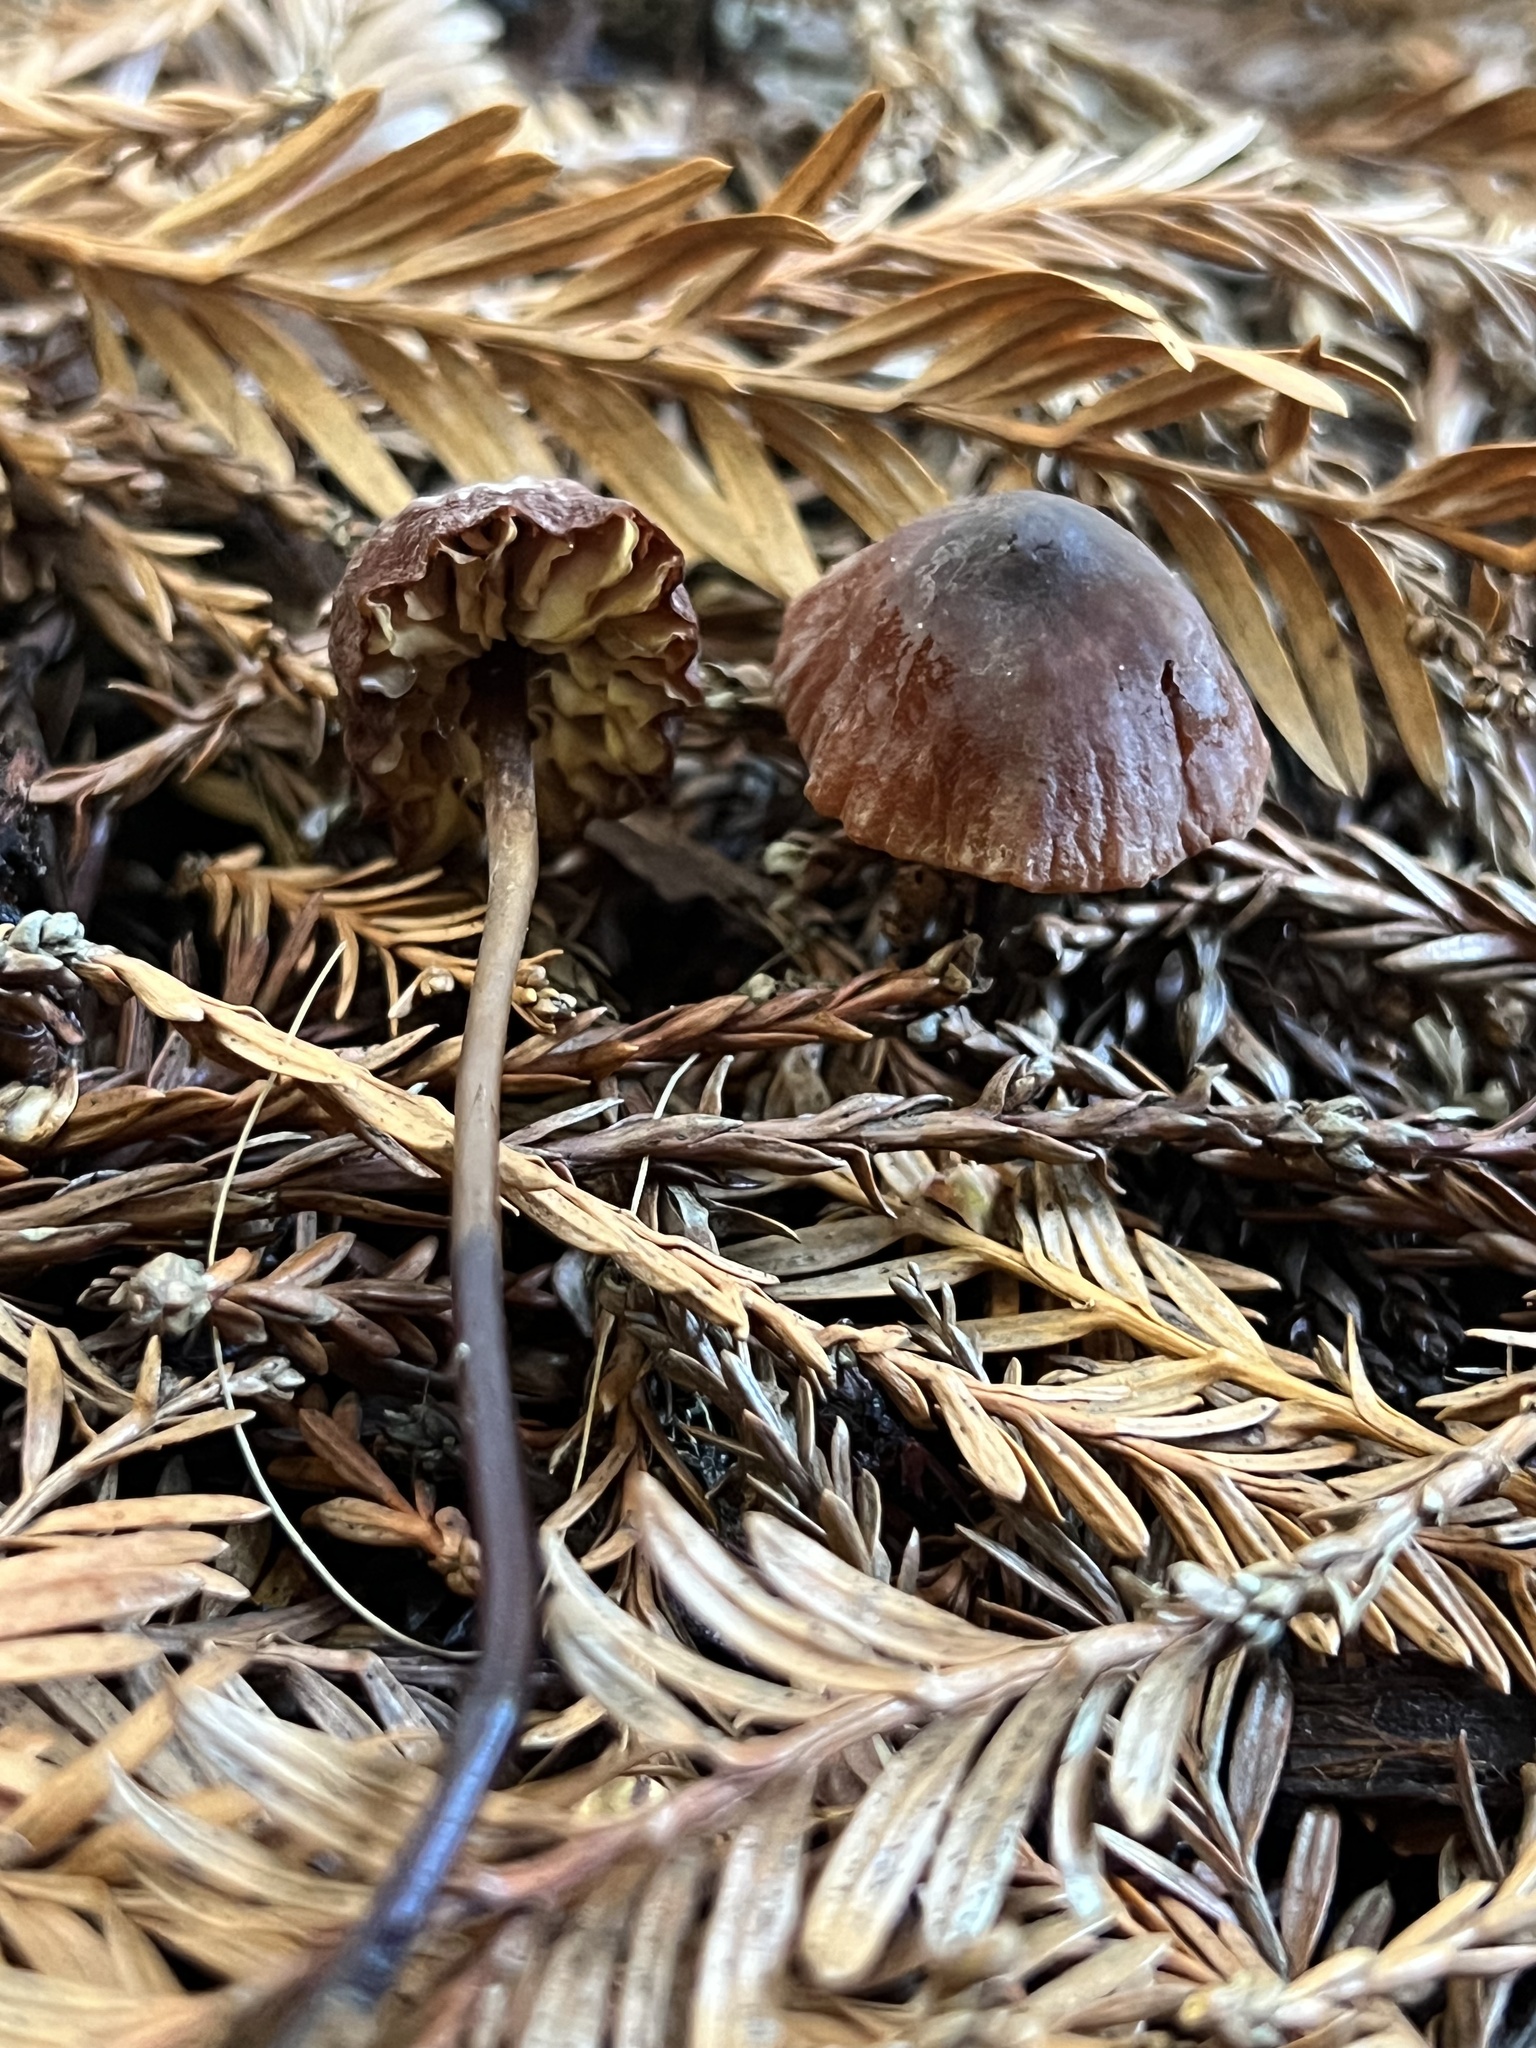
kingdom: Fungi
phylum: Basidiomycota
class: Agaricomycetes
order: Agaricales
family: Marasmiaceae
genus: Marasmius
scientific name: Marasmius plicatulus
